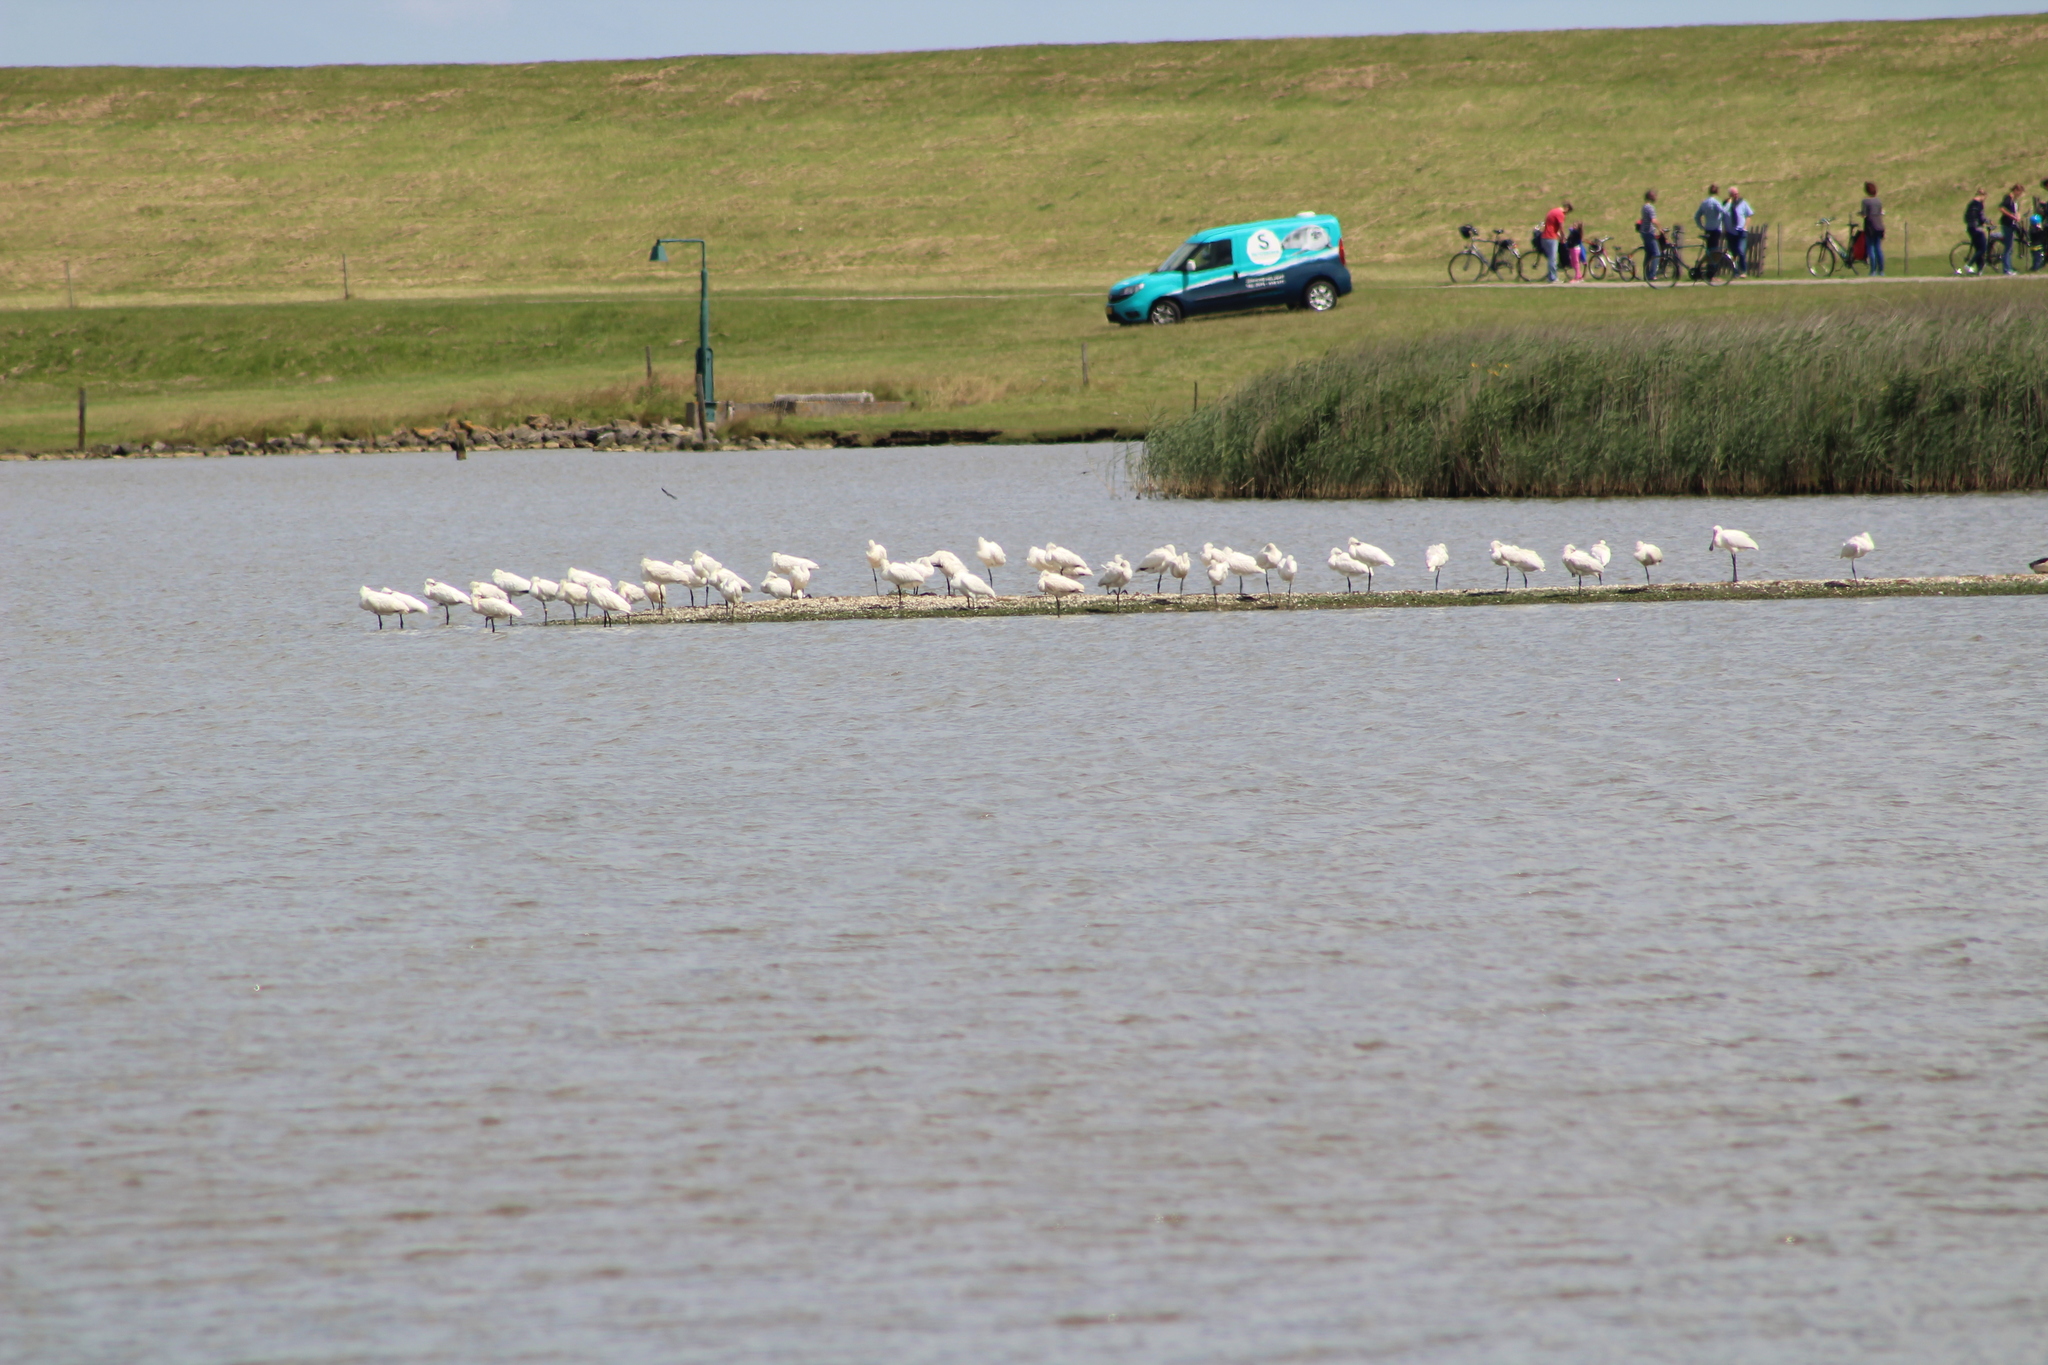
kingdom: Animalia
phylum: Chordata
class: Aves
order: Pelecaniformes
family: Threskiornithidae
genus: Platalea
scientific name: Platalea leucorodia
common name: Eurasian spoonbill
